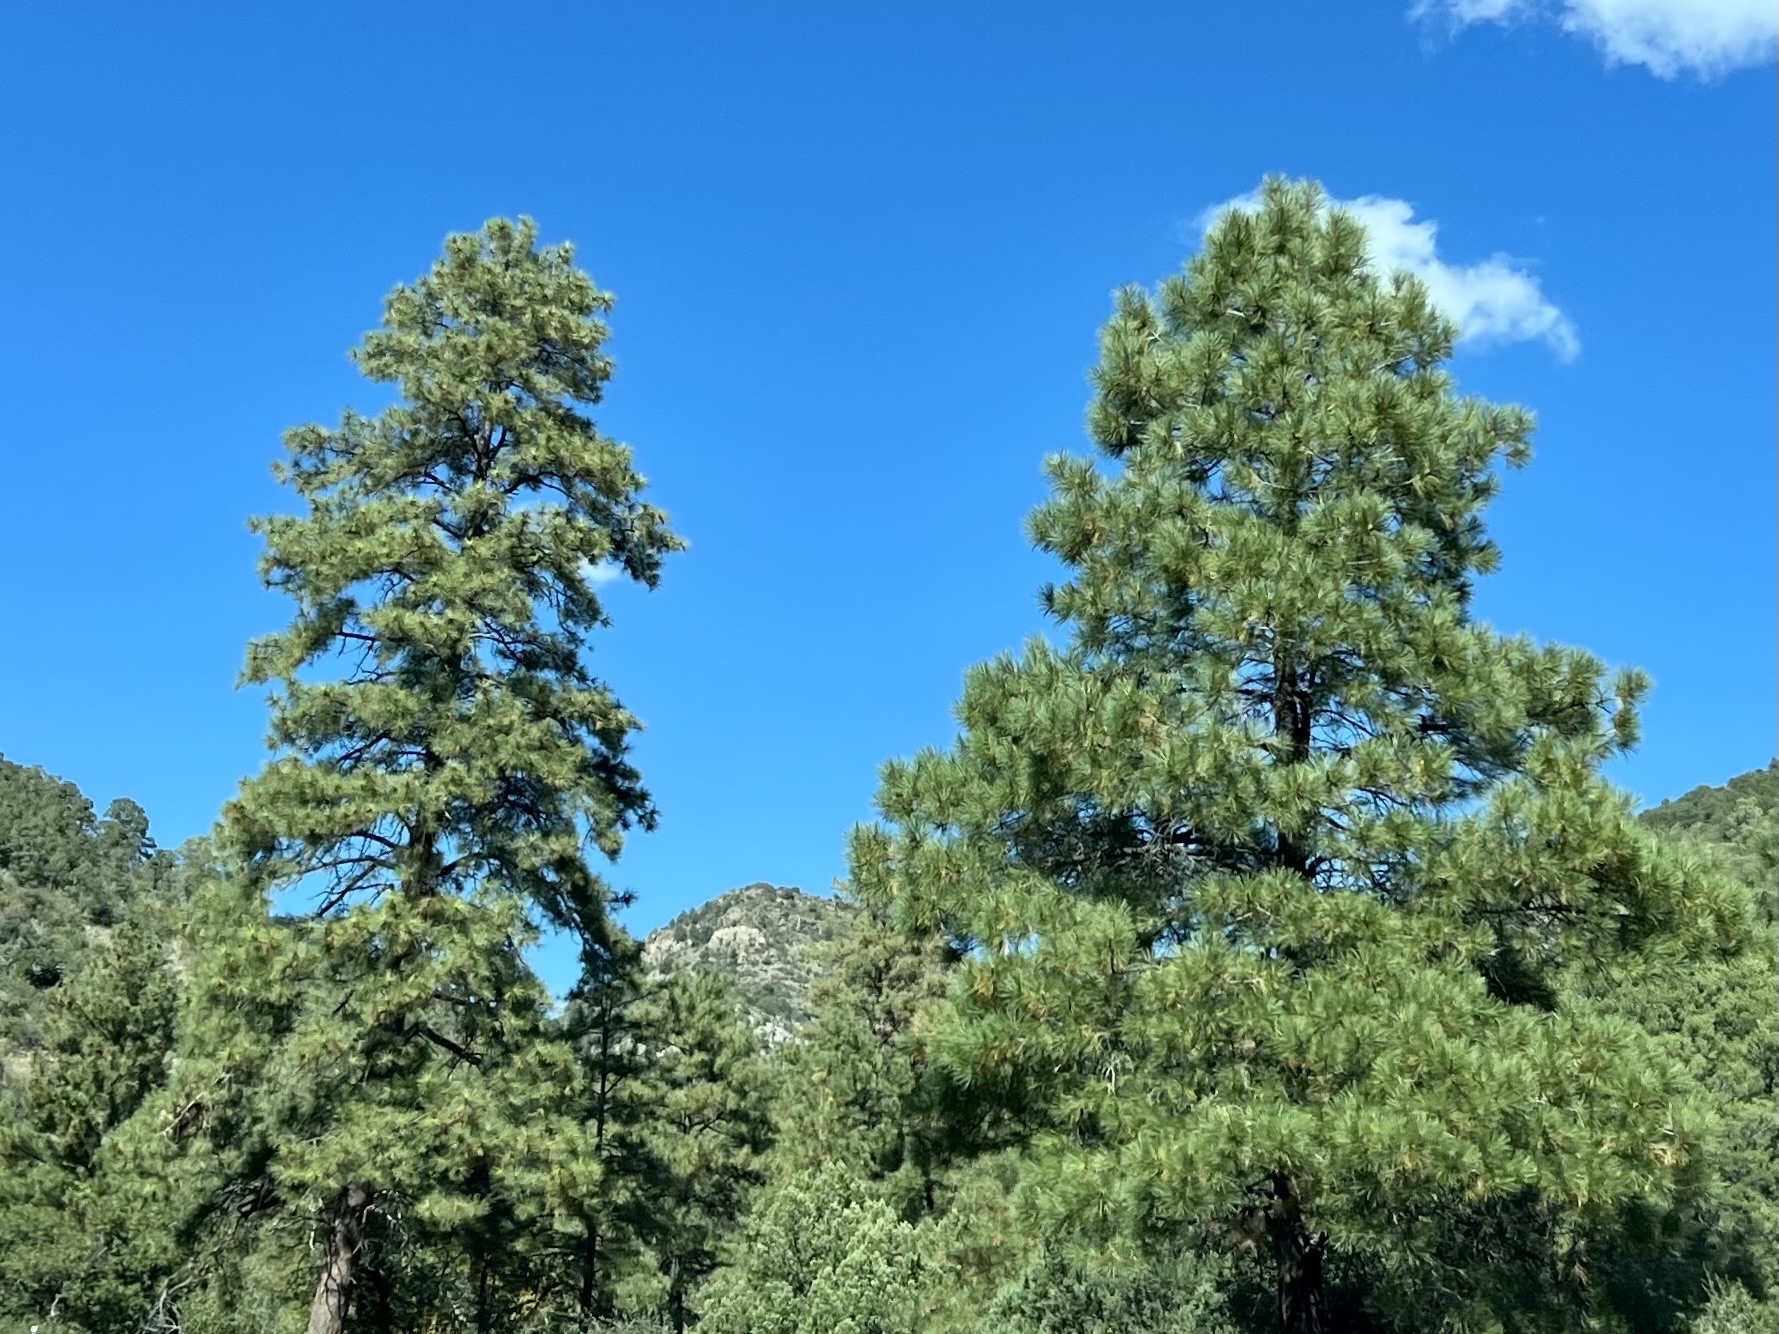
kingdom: Plantae
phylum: Tracheophyta
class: Pinopsida
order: Pinales
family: Pinaceae
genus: Pinus
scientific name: Pinus ponderosa
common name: Western yellow-pine
